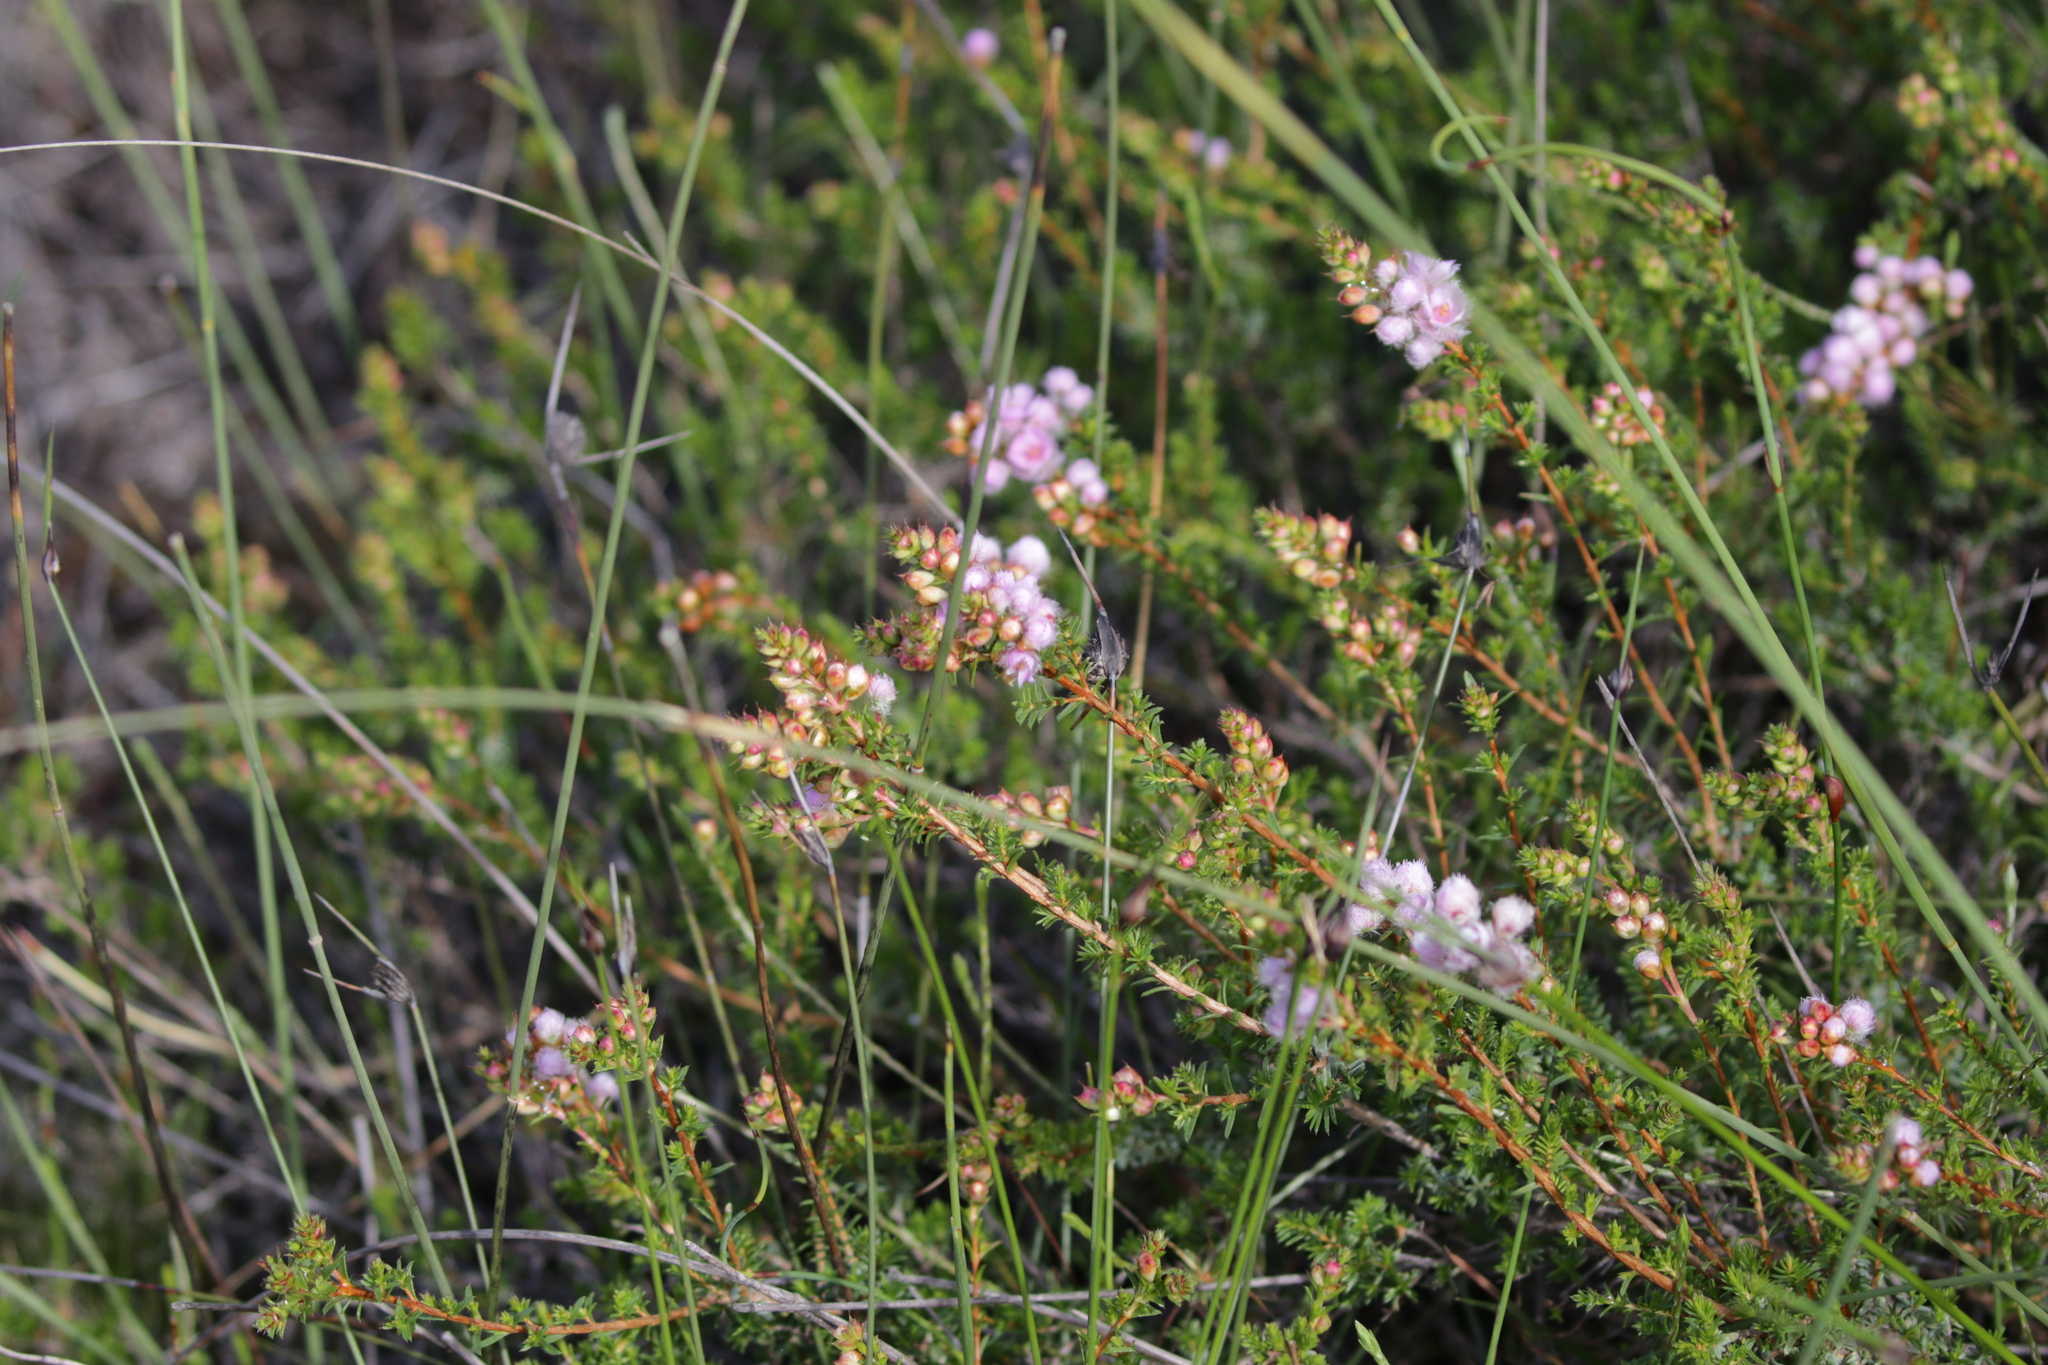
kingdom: Plantae
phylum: Tracheophyta
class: Magnoliopsida
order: Myrtales
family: Myrtaceae
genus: Verticordia
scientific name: Verticordia pennigera
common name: Native-tea
